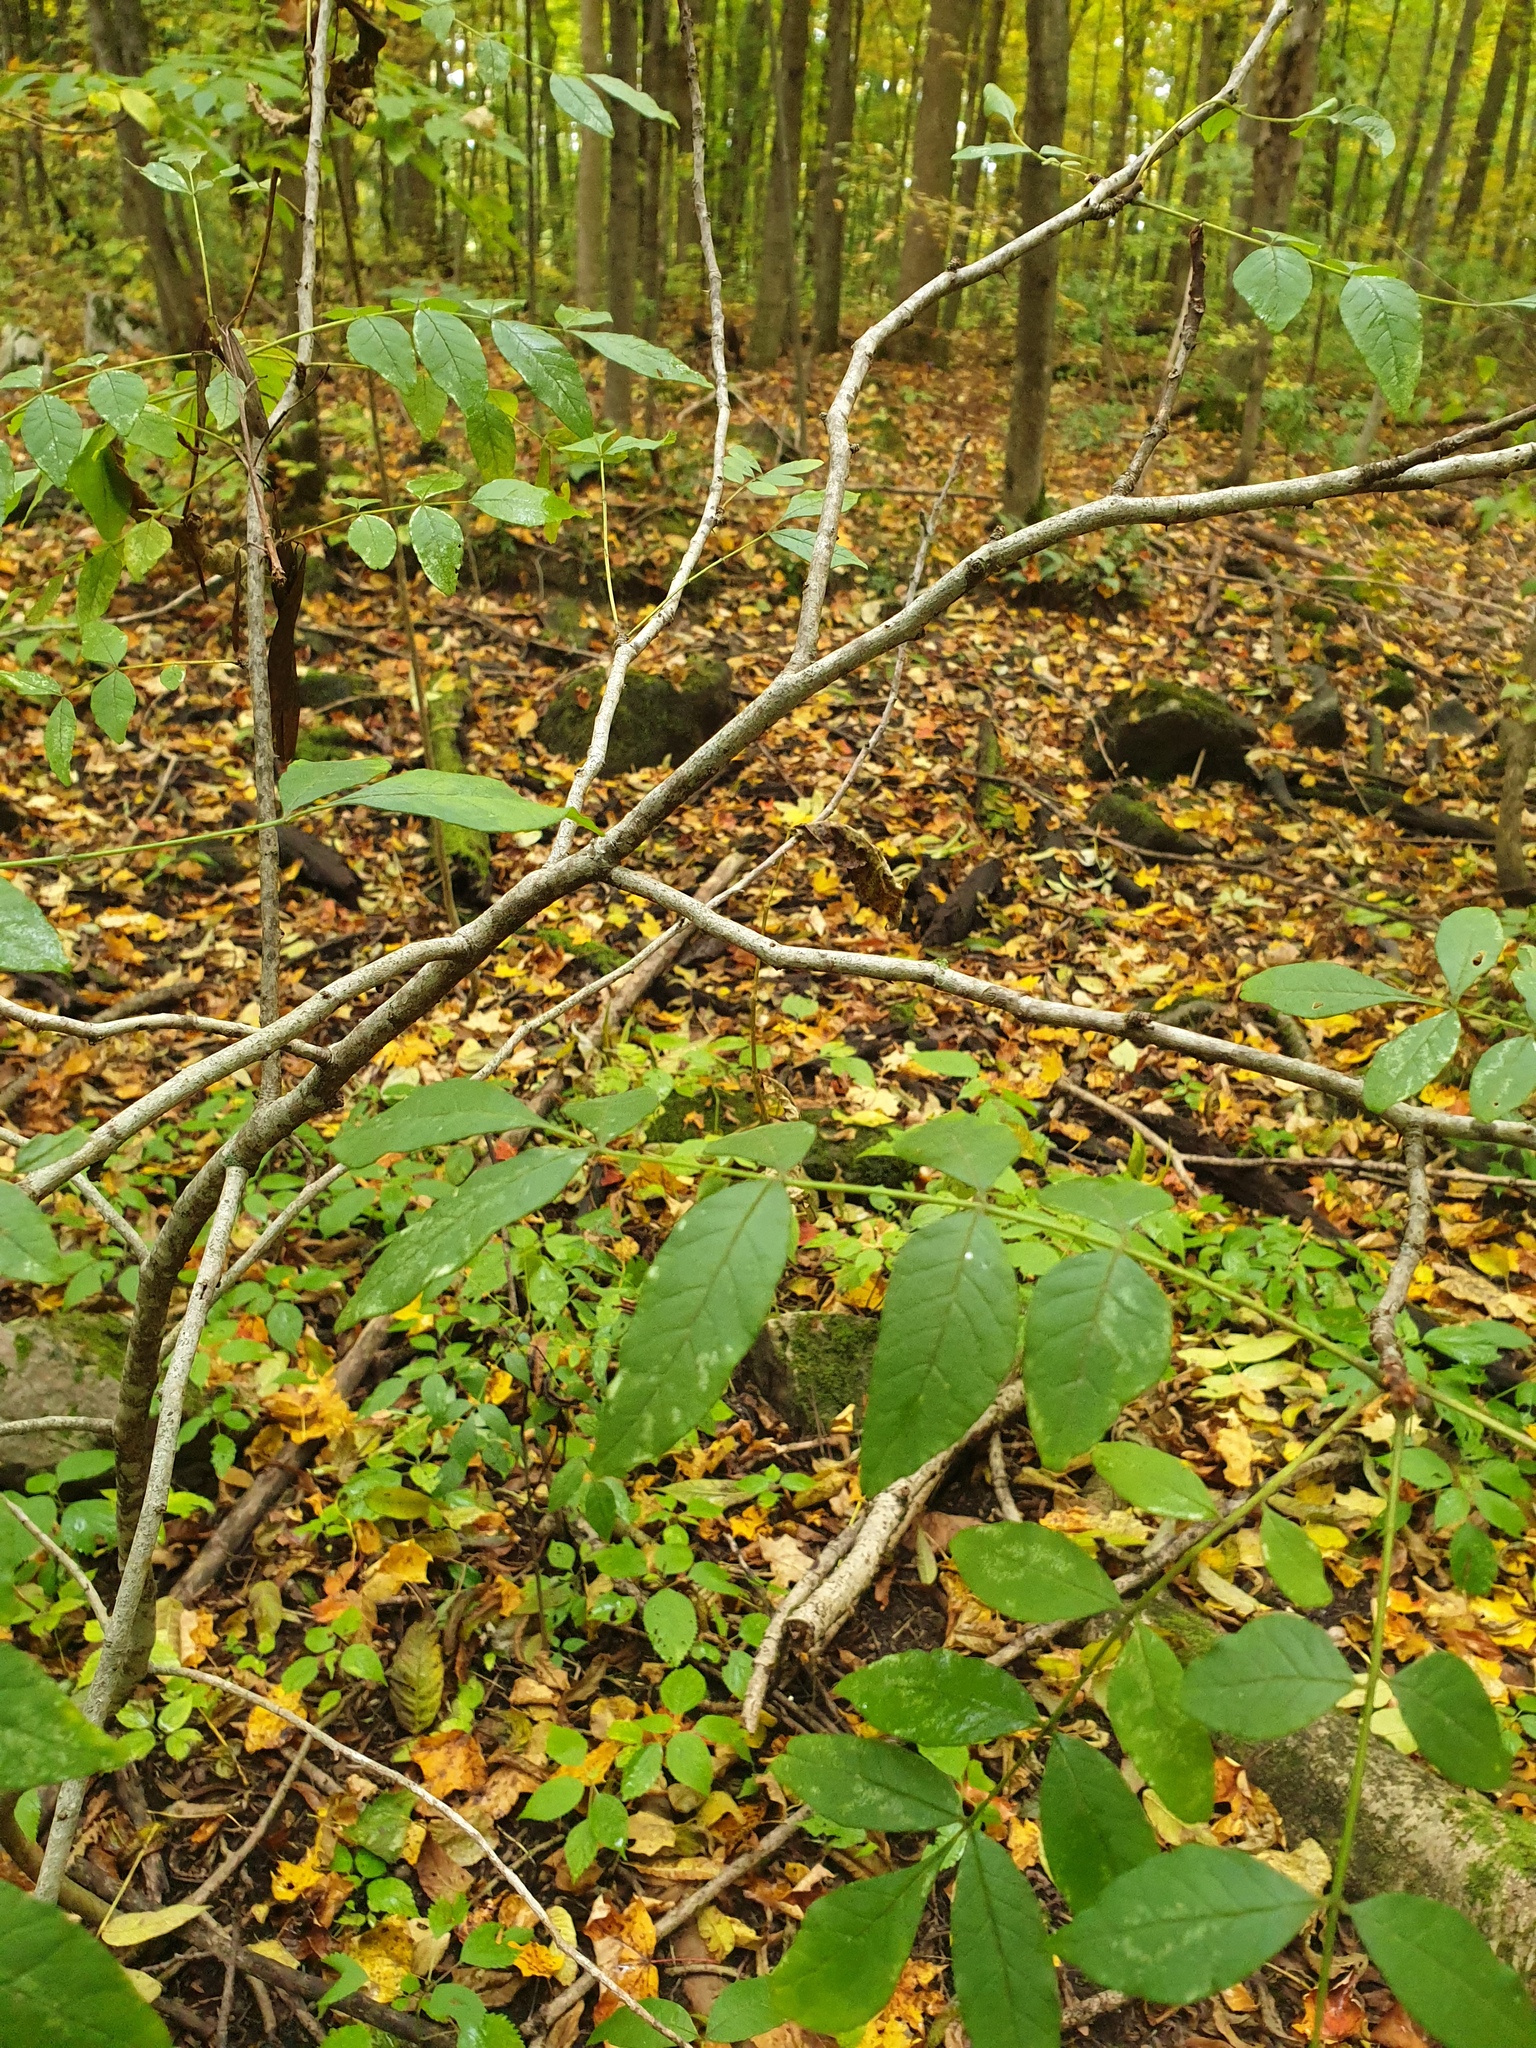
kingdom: Plantae
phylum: Tracheophyta
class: Magnoliopsida
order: Sapindales
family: Rutaceae
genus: Zanthoxylum
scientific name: Zanthoxylum americanum
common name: Northern prickly-ash
